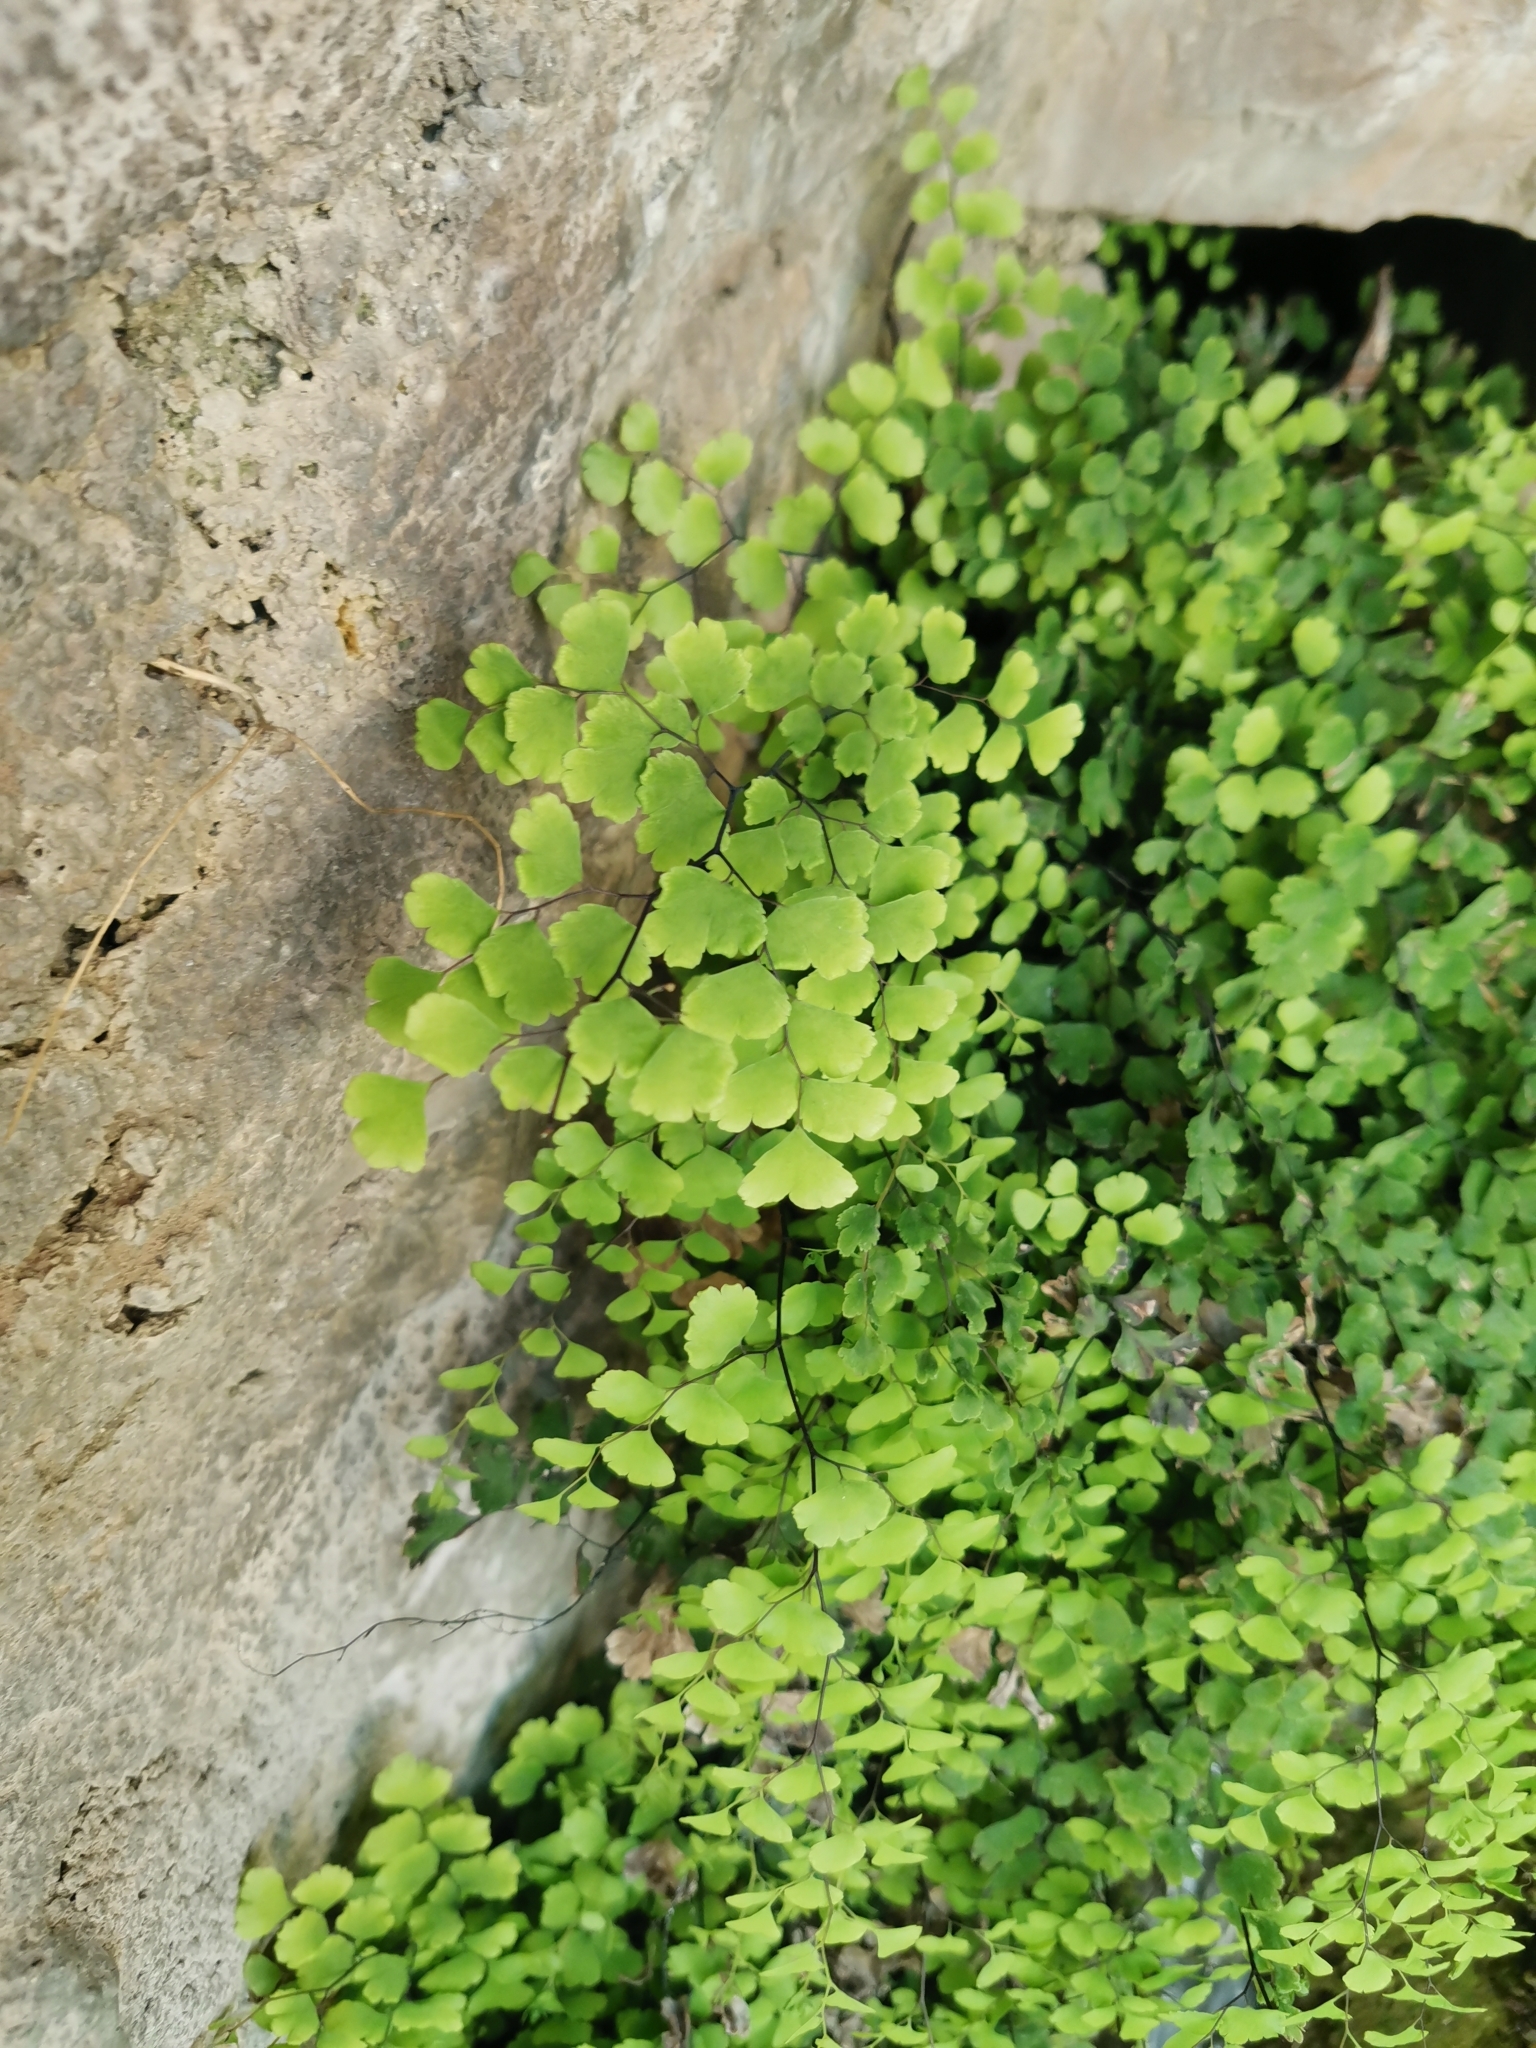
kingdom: Plantae
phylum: Tracheophyta
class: Polypodiopsida
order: Polypodiales
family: Pteridaceae
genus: Adiantum
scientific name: Adiantum capillus-veneris
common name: Maidenhair fern
